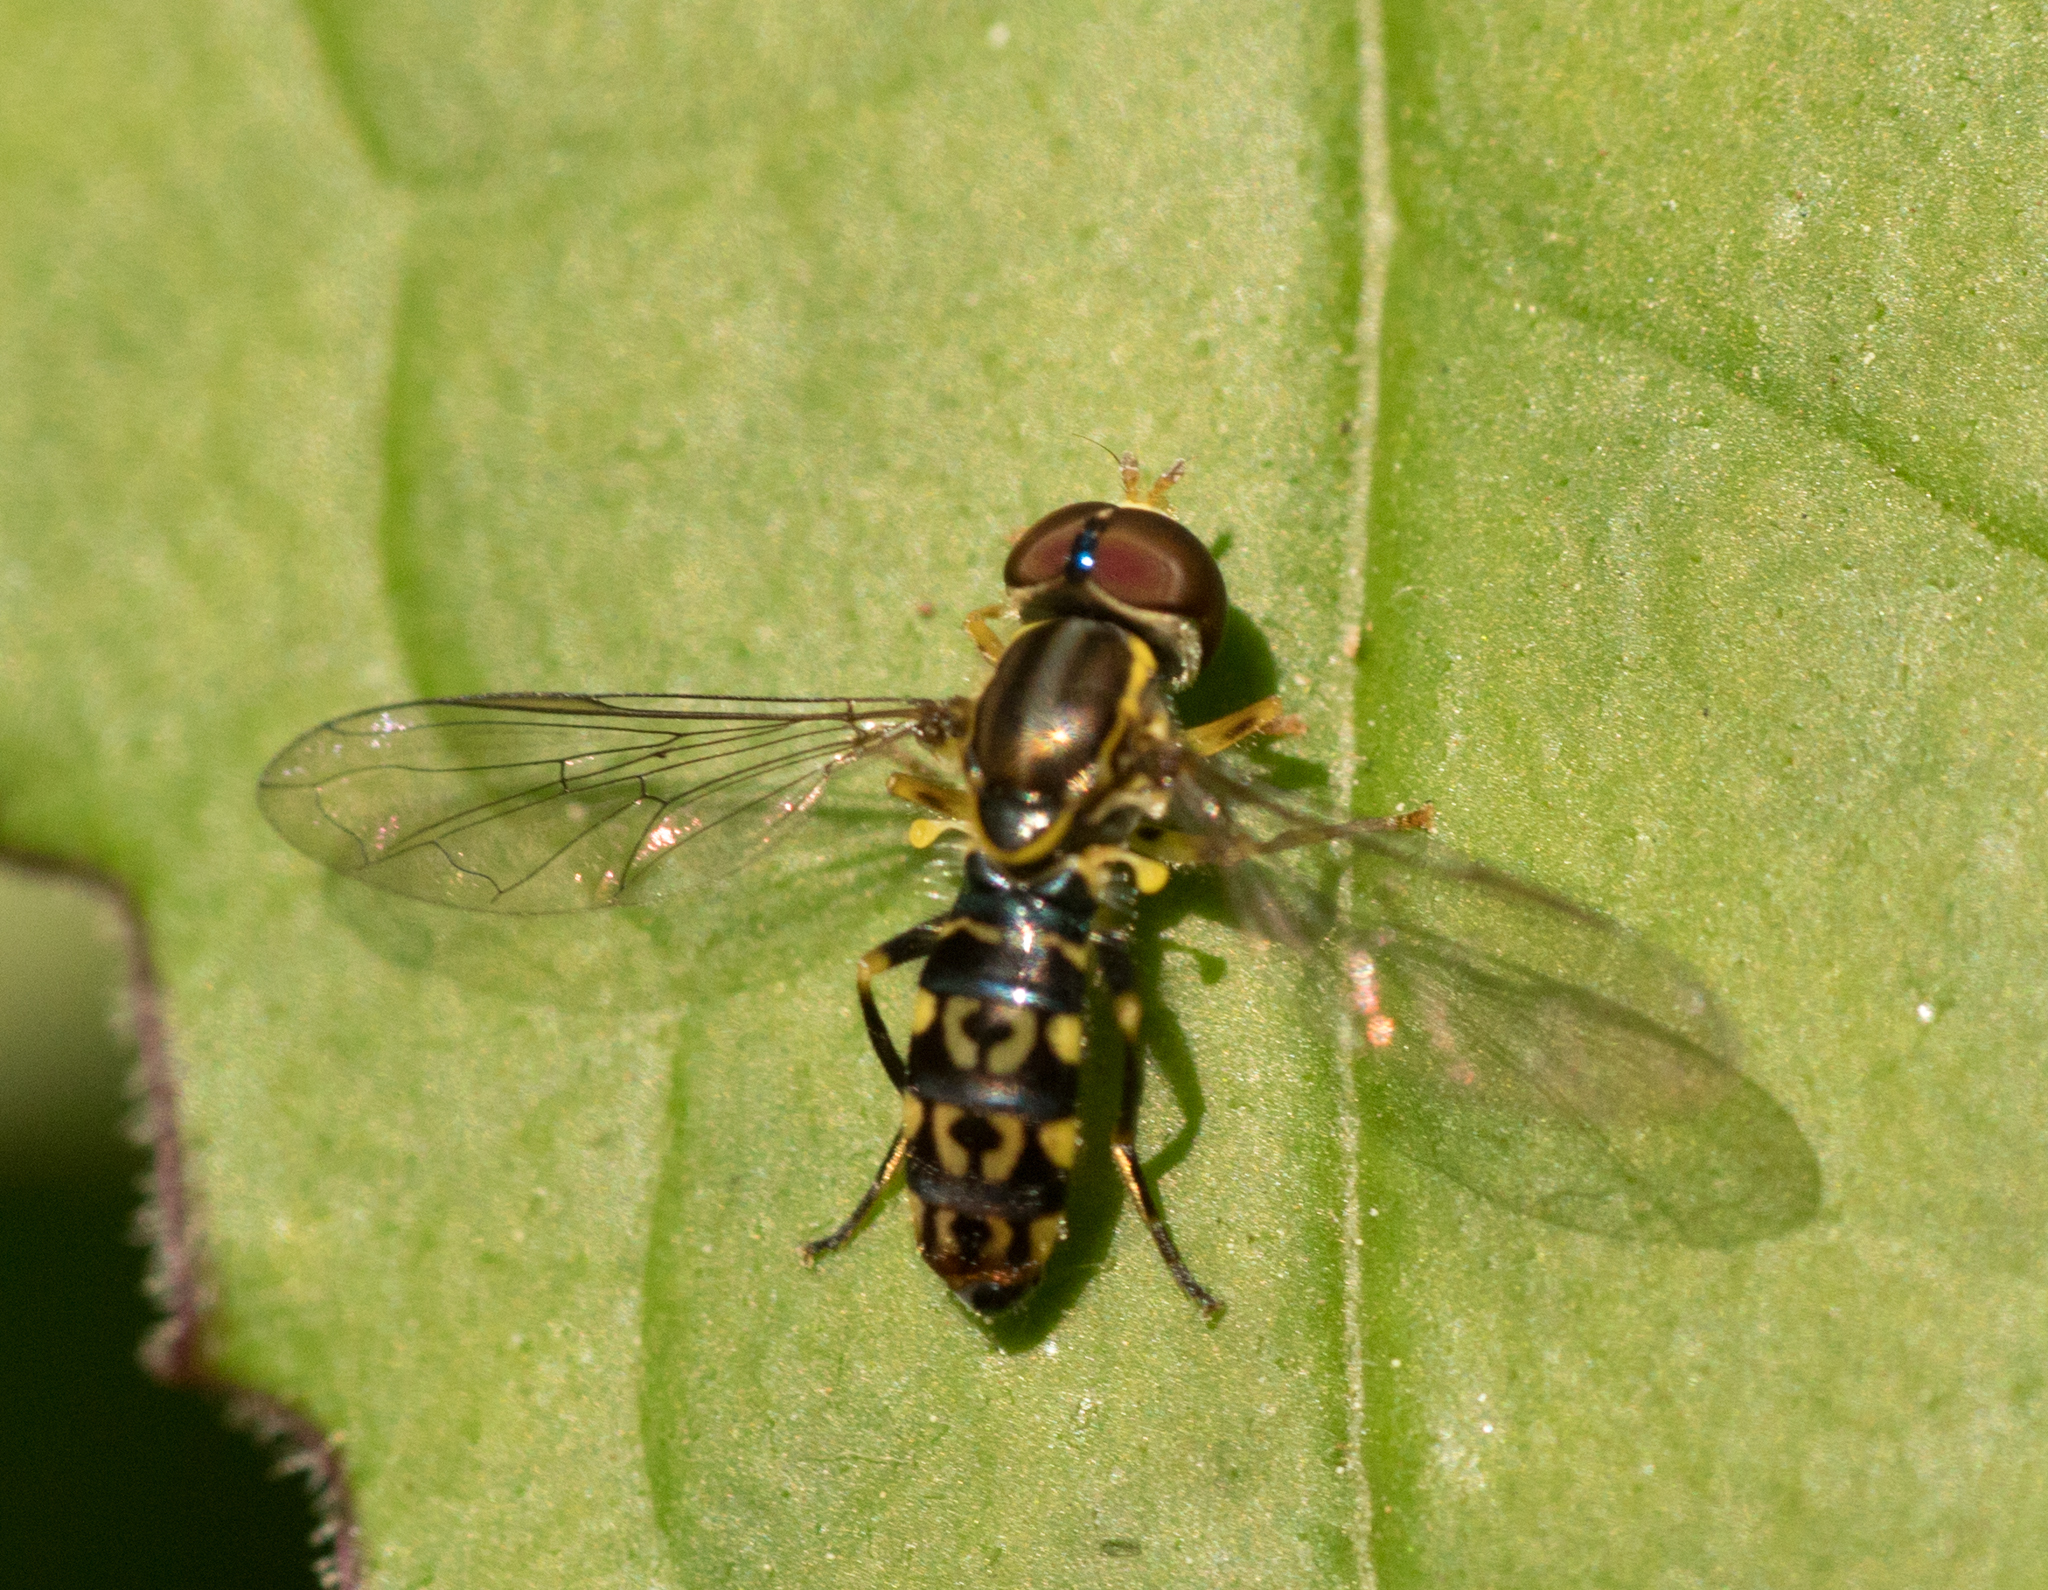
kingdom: Animalia
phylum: Arthropoda
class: Insecta
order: Diptera
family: Syrphidae
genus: Toxomerus
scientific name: Toxomerus virgulatus
